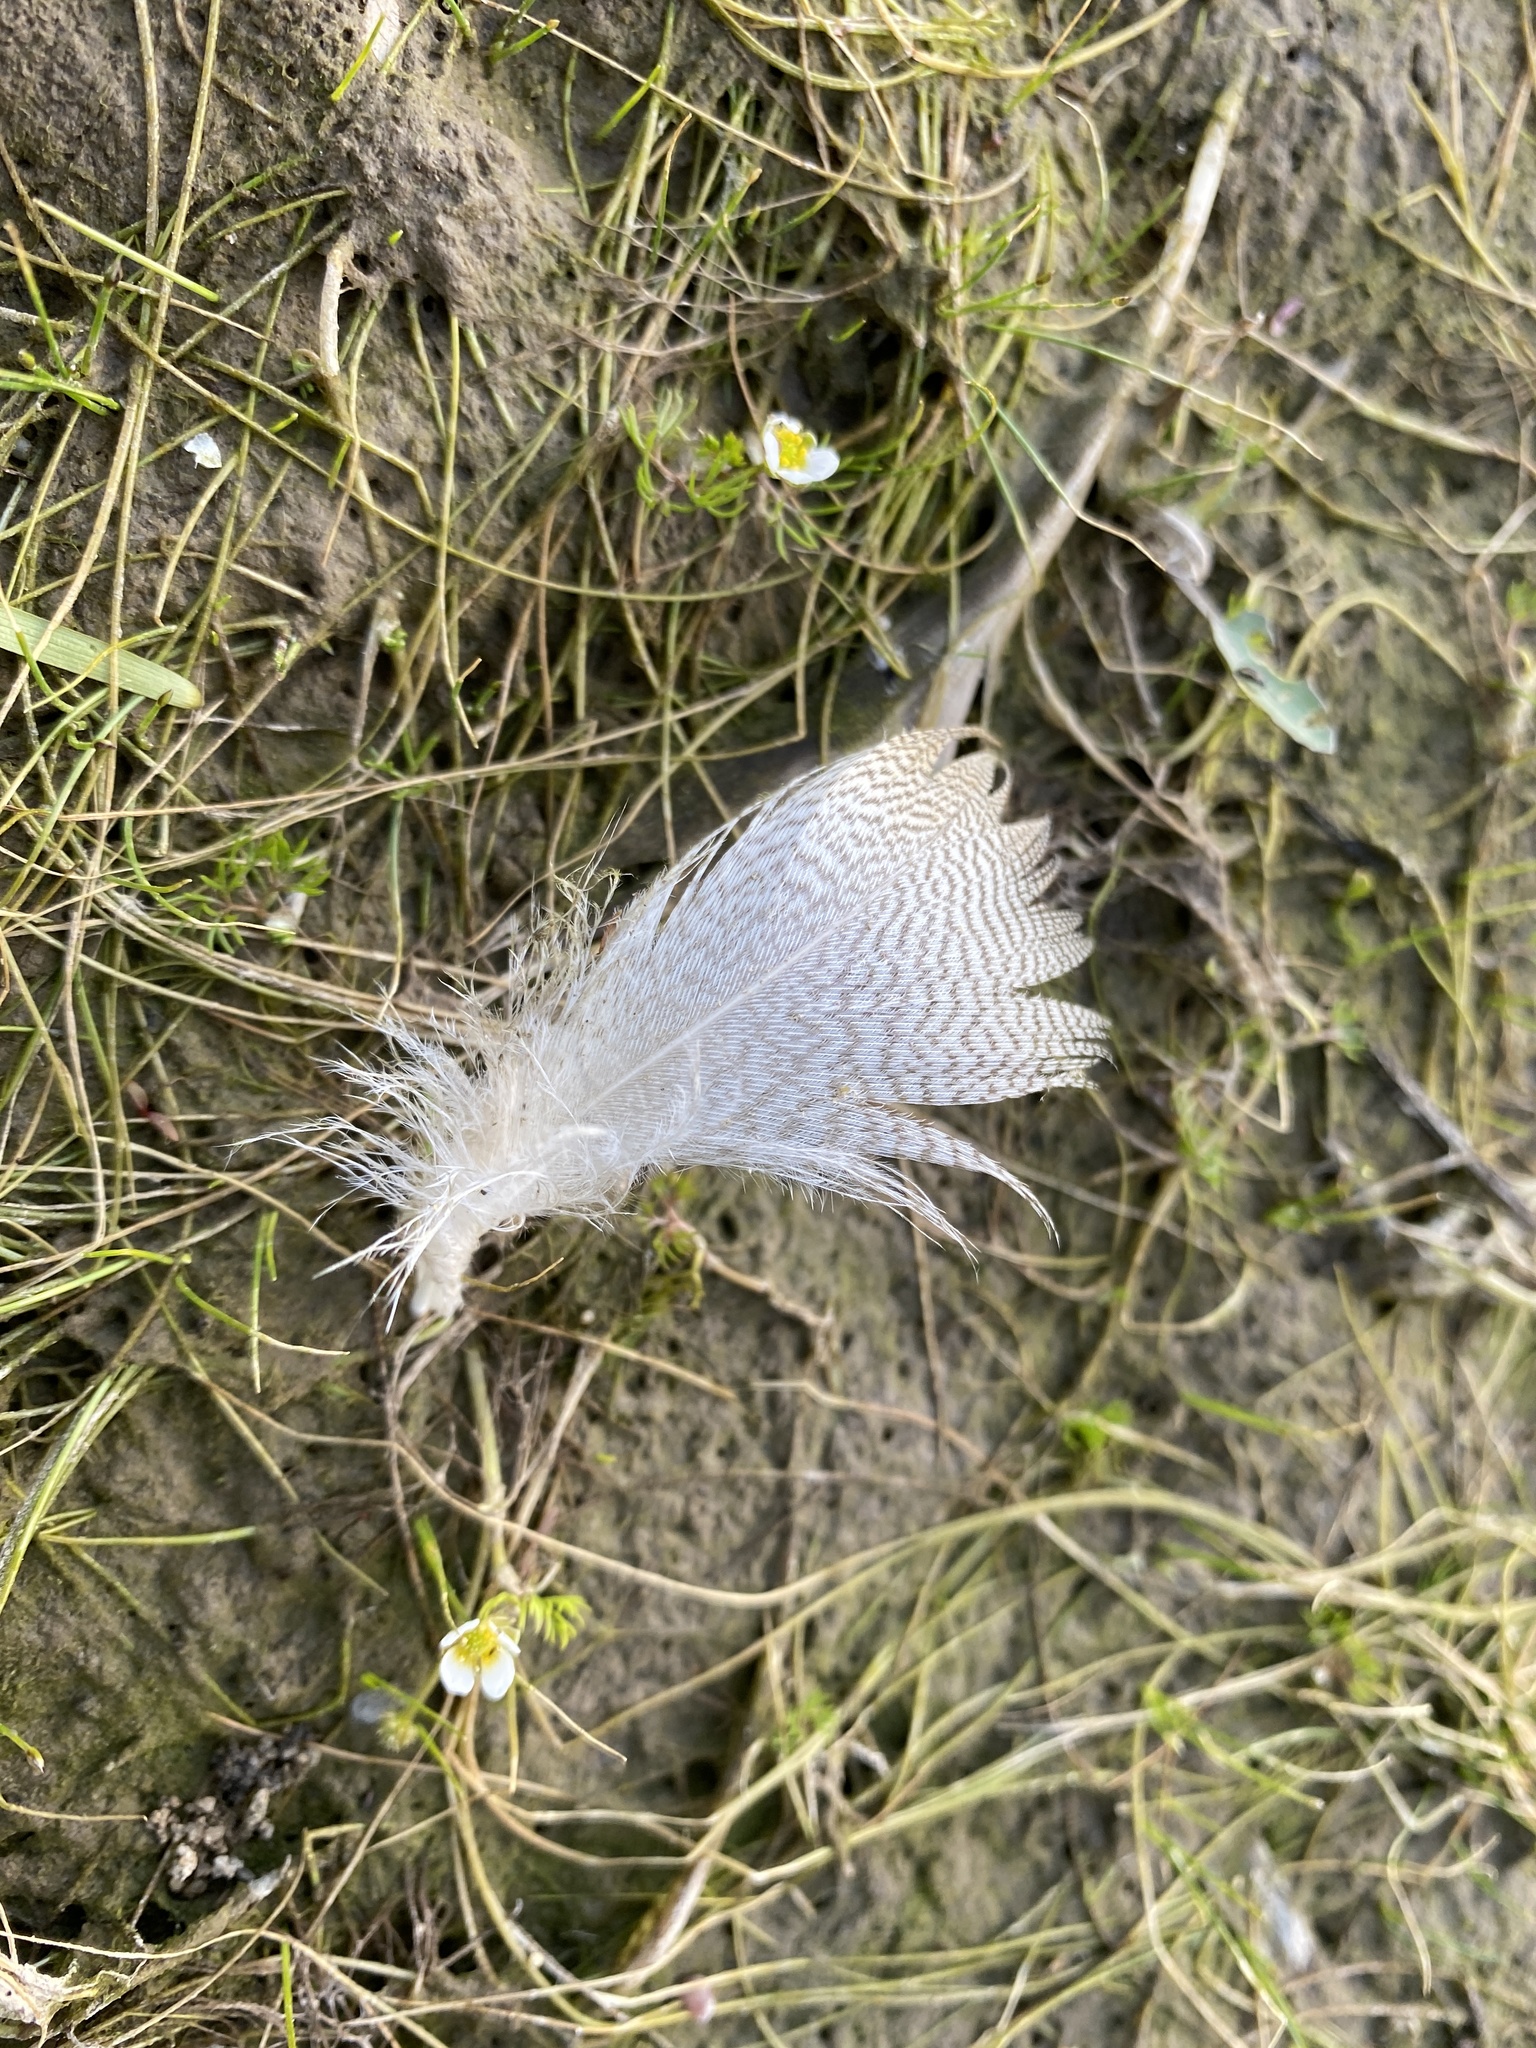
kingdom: Animalia
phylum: Chordata
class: Aves
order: Anseriformes
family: Anatidae
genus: Anas
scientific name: Anas platyrhynchos
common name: Mallard
